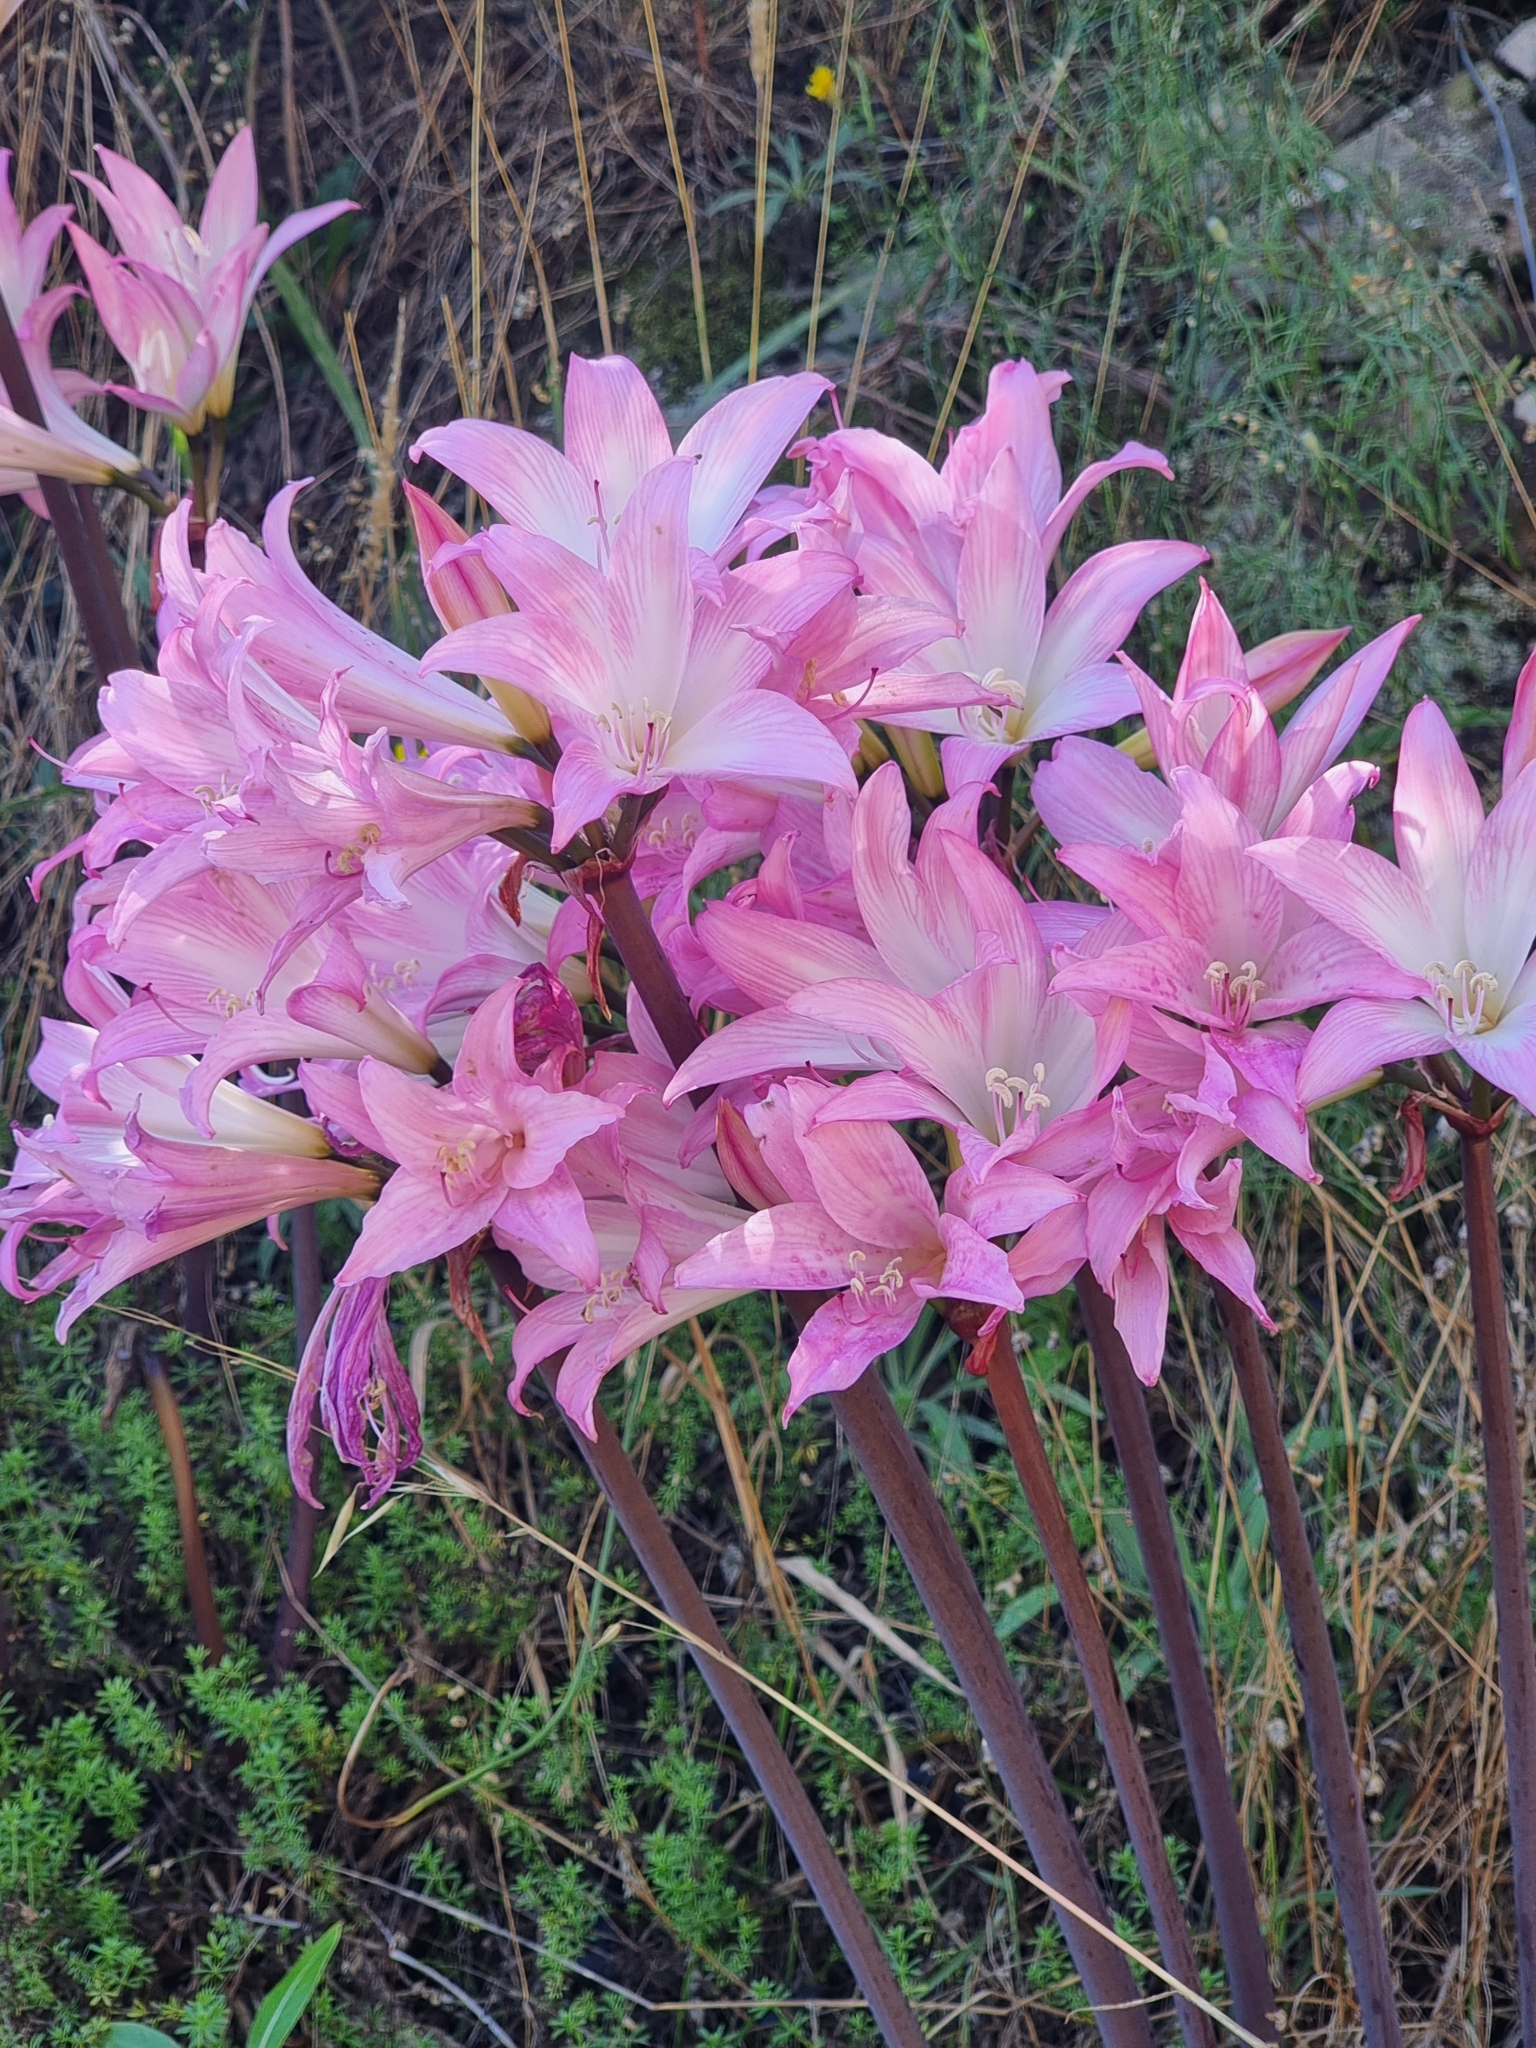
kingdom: Plantae
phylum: Tracheophyta
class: Liliopsida
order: Asparagales
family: Amaryllidaceae
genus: Amaryllis
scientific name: Amaryllis belladonna
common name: Jersey lily
